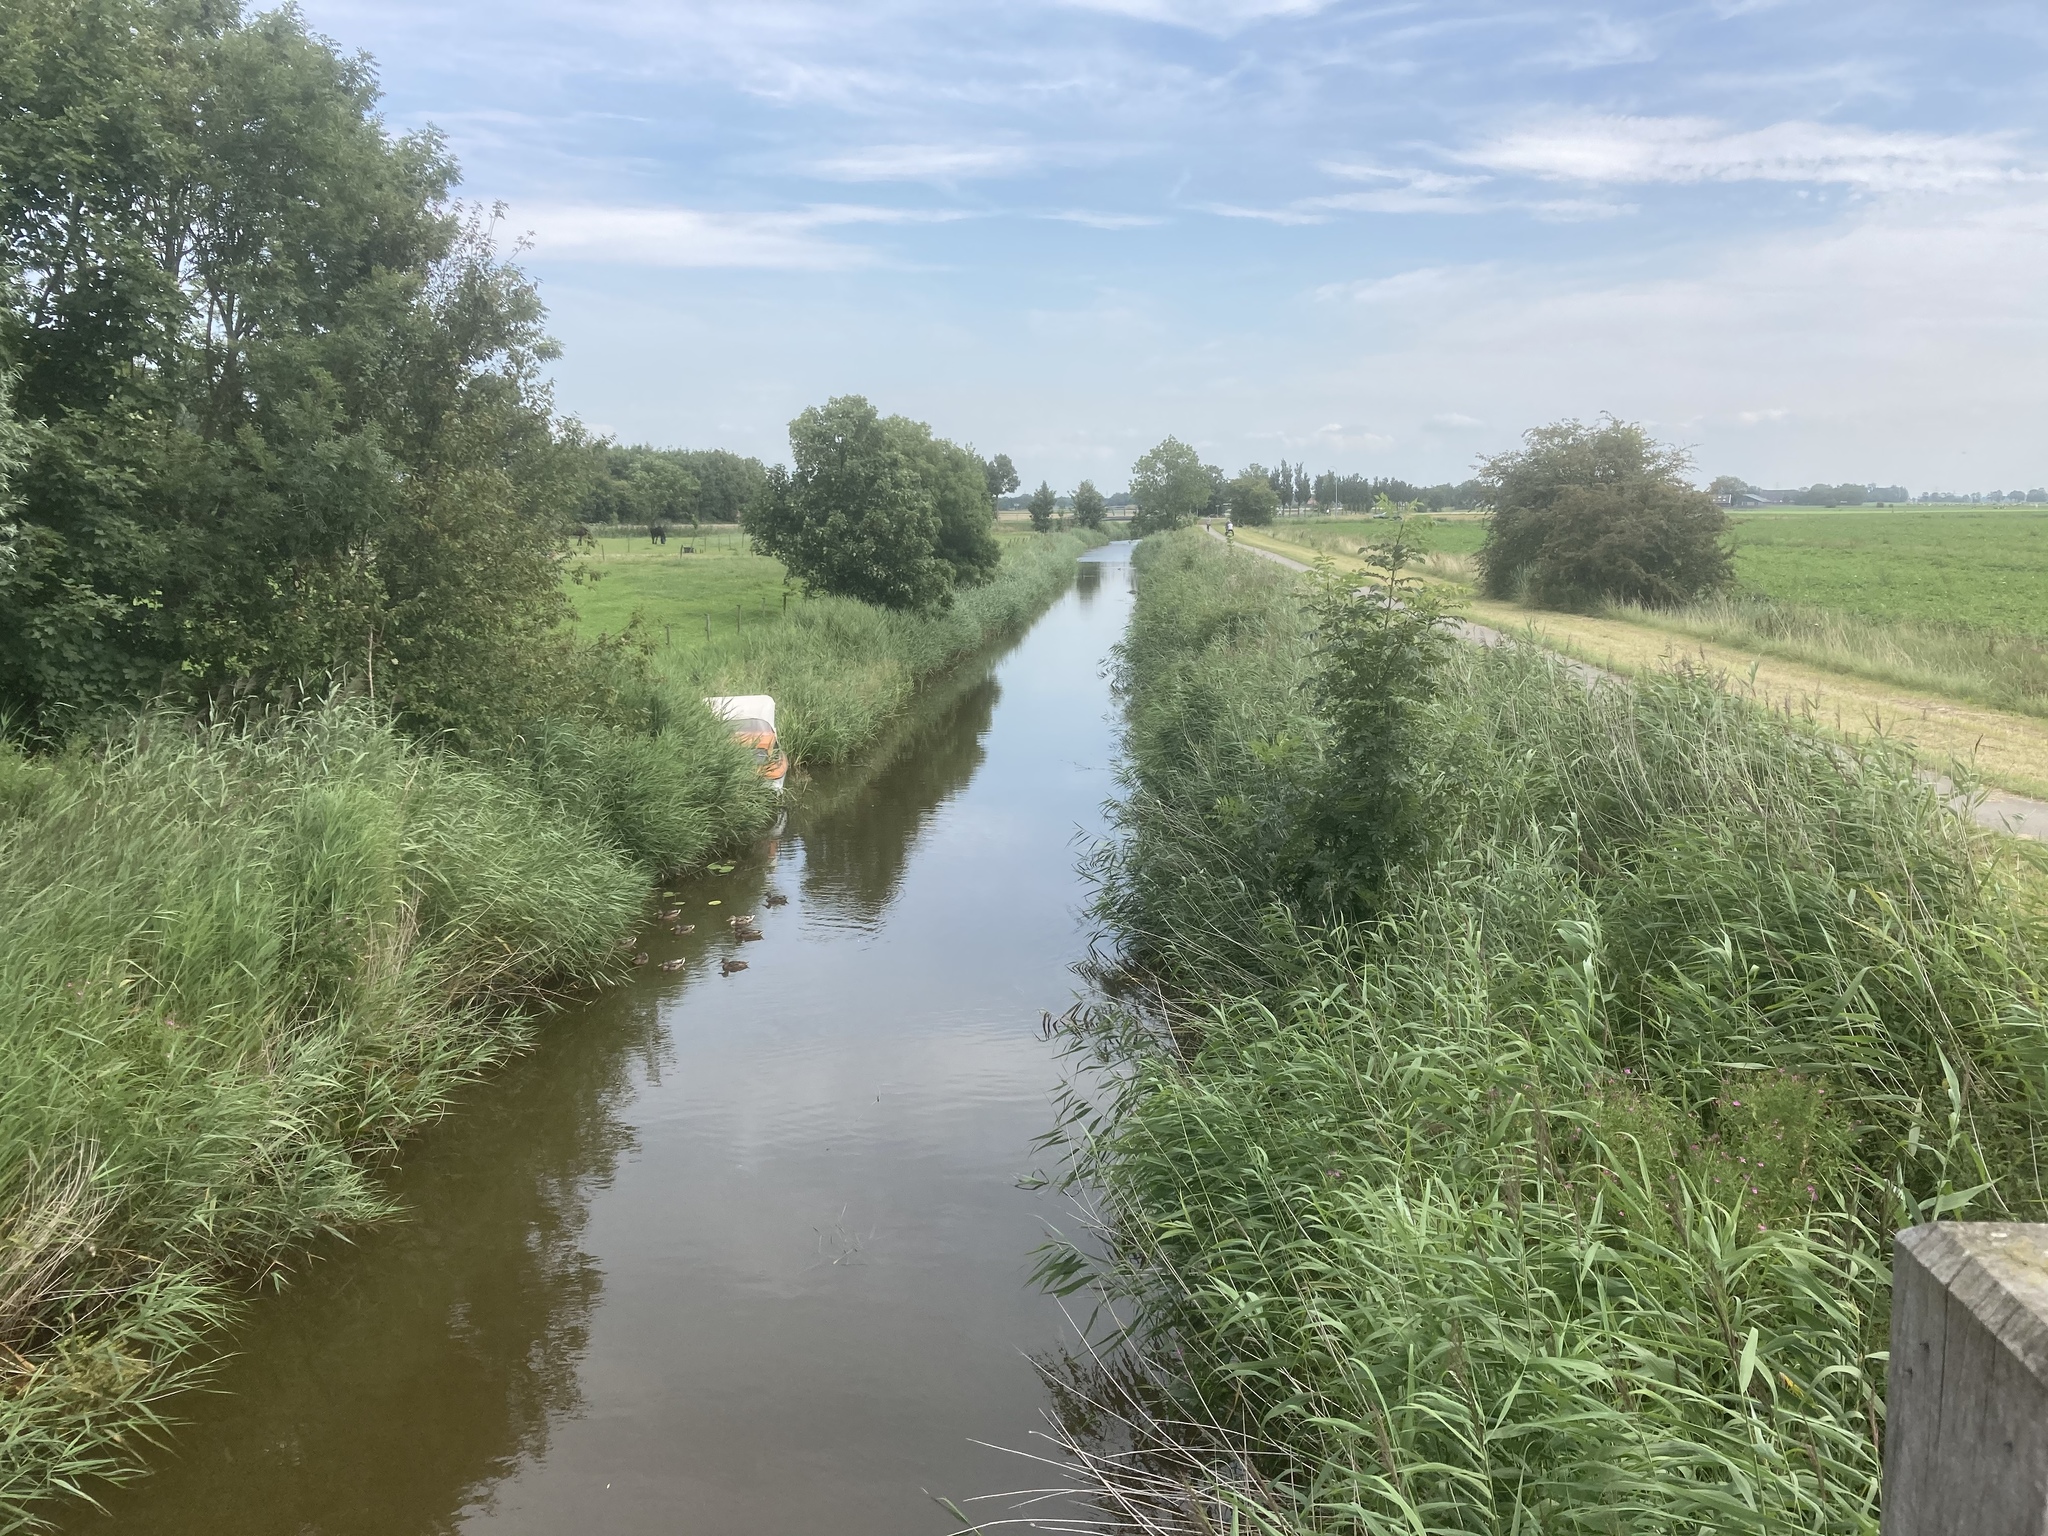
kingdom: Plantae
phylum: Tracheophyta
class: Liliopsida
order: Poales
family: Poaceae
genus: Phragmites
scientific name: Phragmites australis
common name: Common reed
